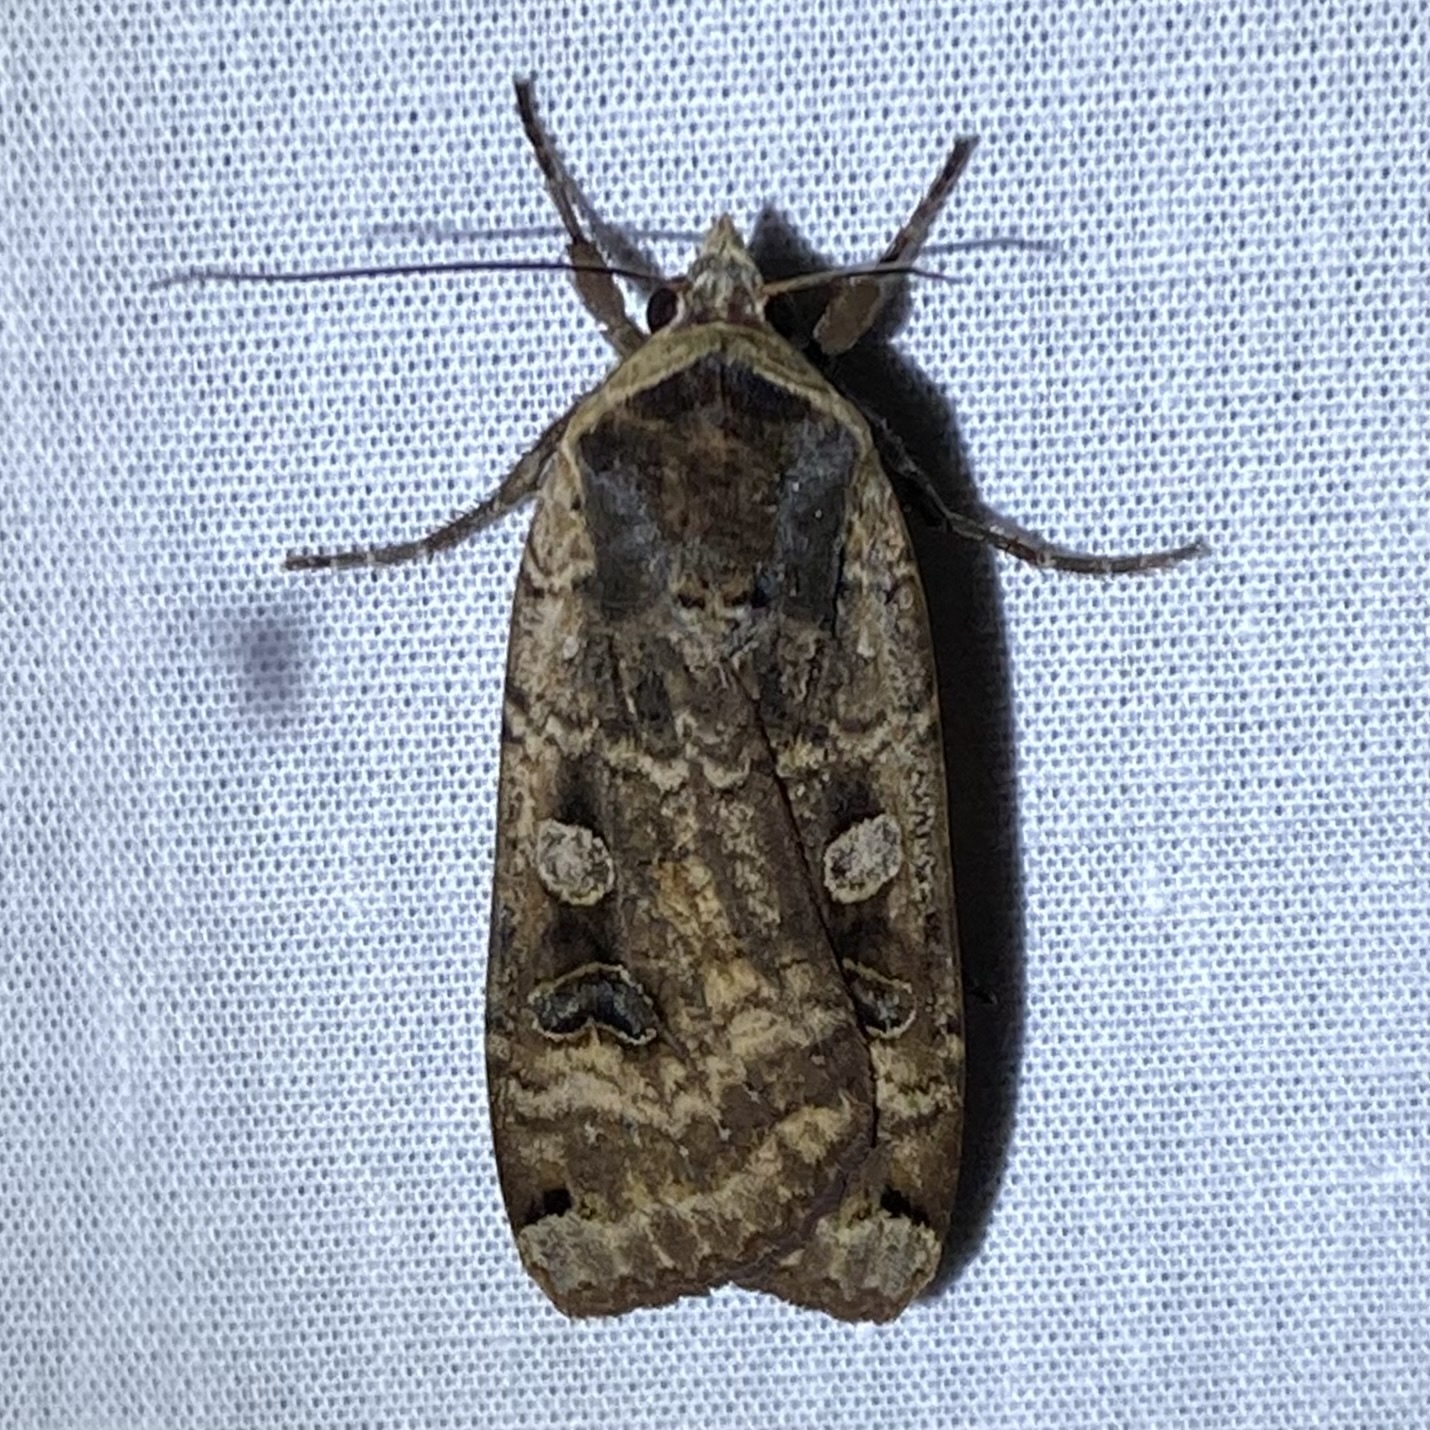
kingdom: Animalia
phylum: Arthropoda
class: Insecta
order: Lepidoptera
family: Noctuidae
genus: Noctua
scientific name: Noctua pronuba
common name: Large yellow underwing
